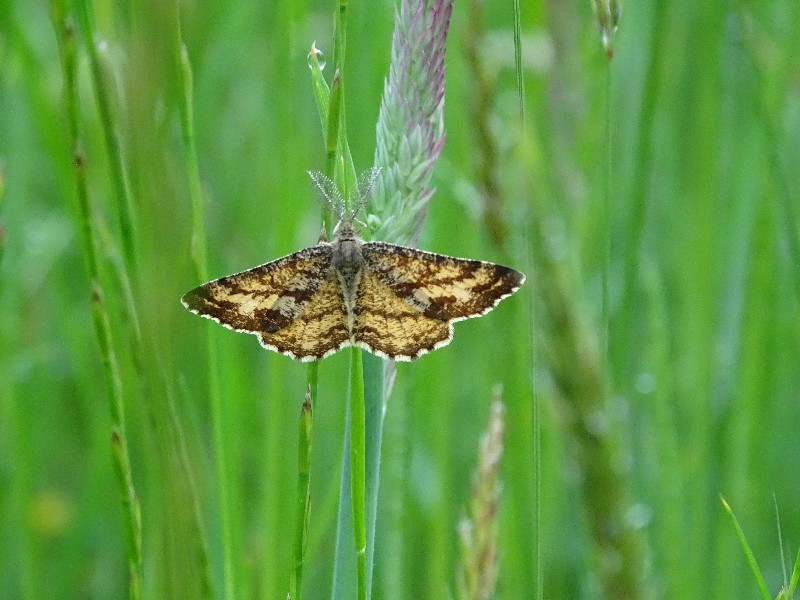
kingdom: Animalia
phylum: Arthropoda
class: Insecta
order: Lepidoptera
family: Geometridae
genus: Ematurga
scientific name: Ematurga atomaria
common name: Common heath
